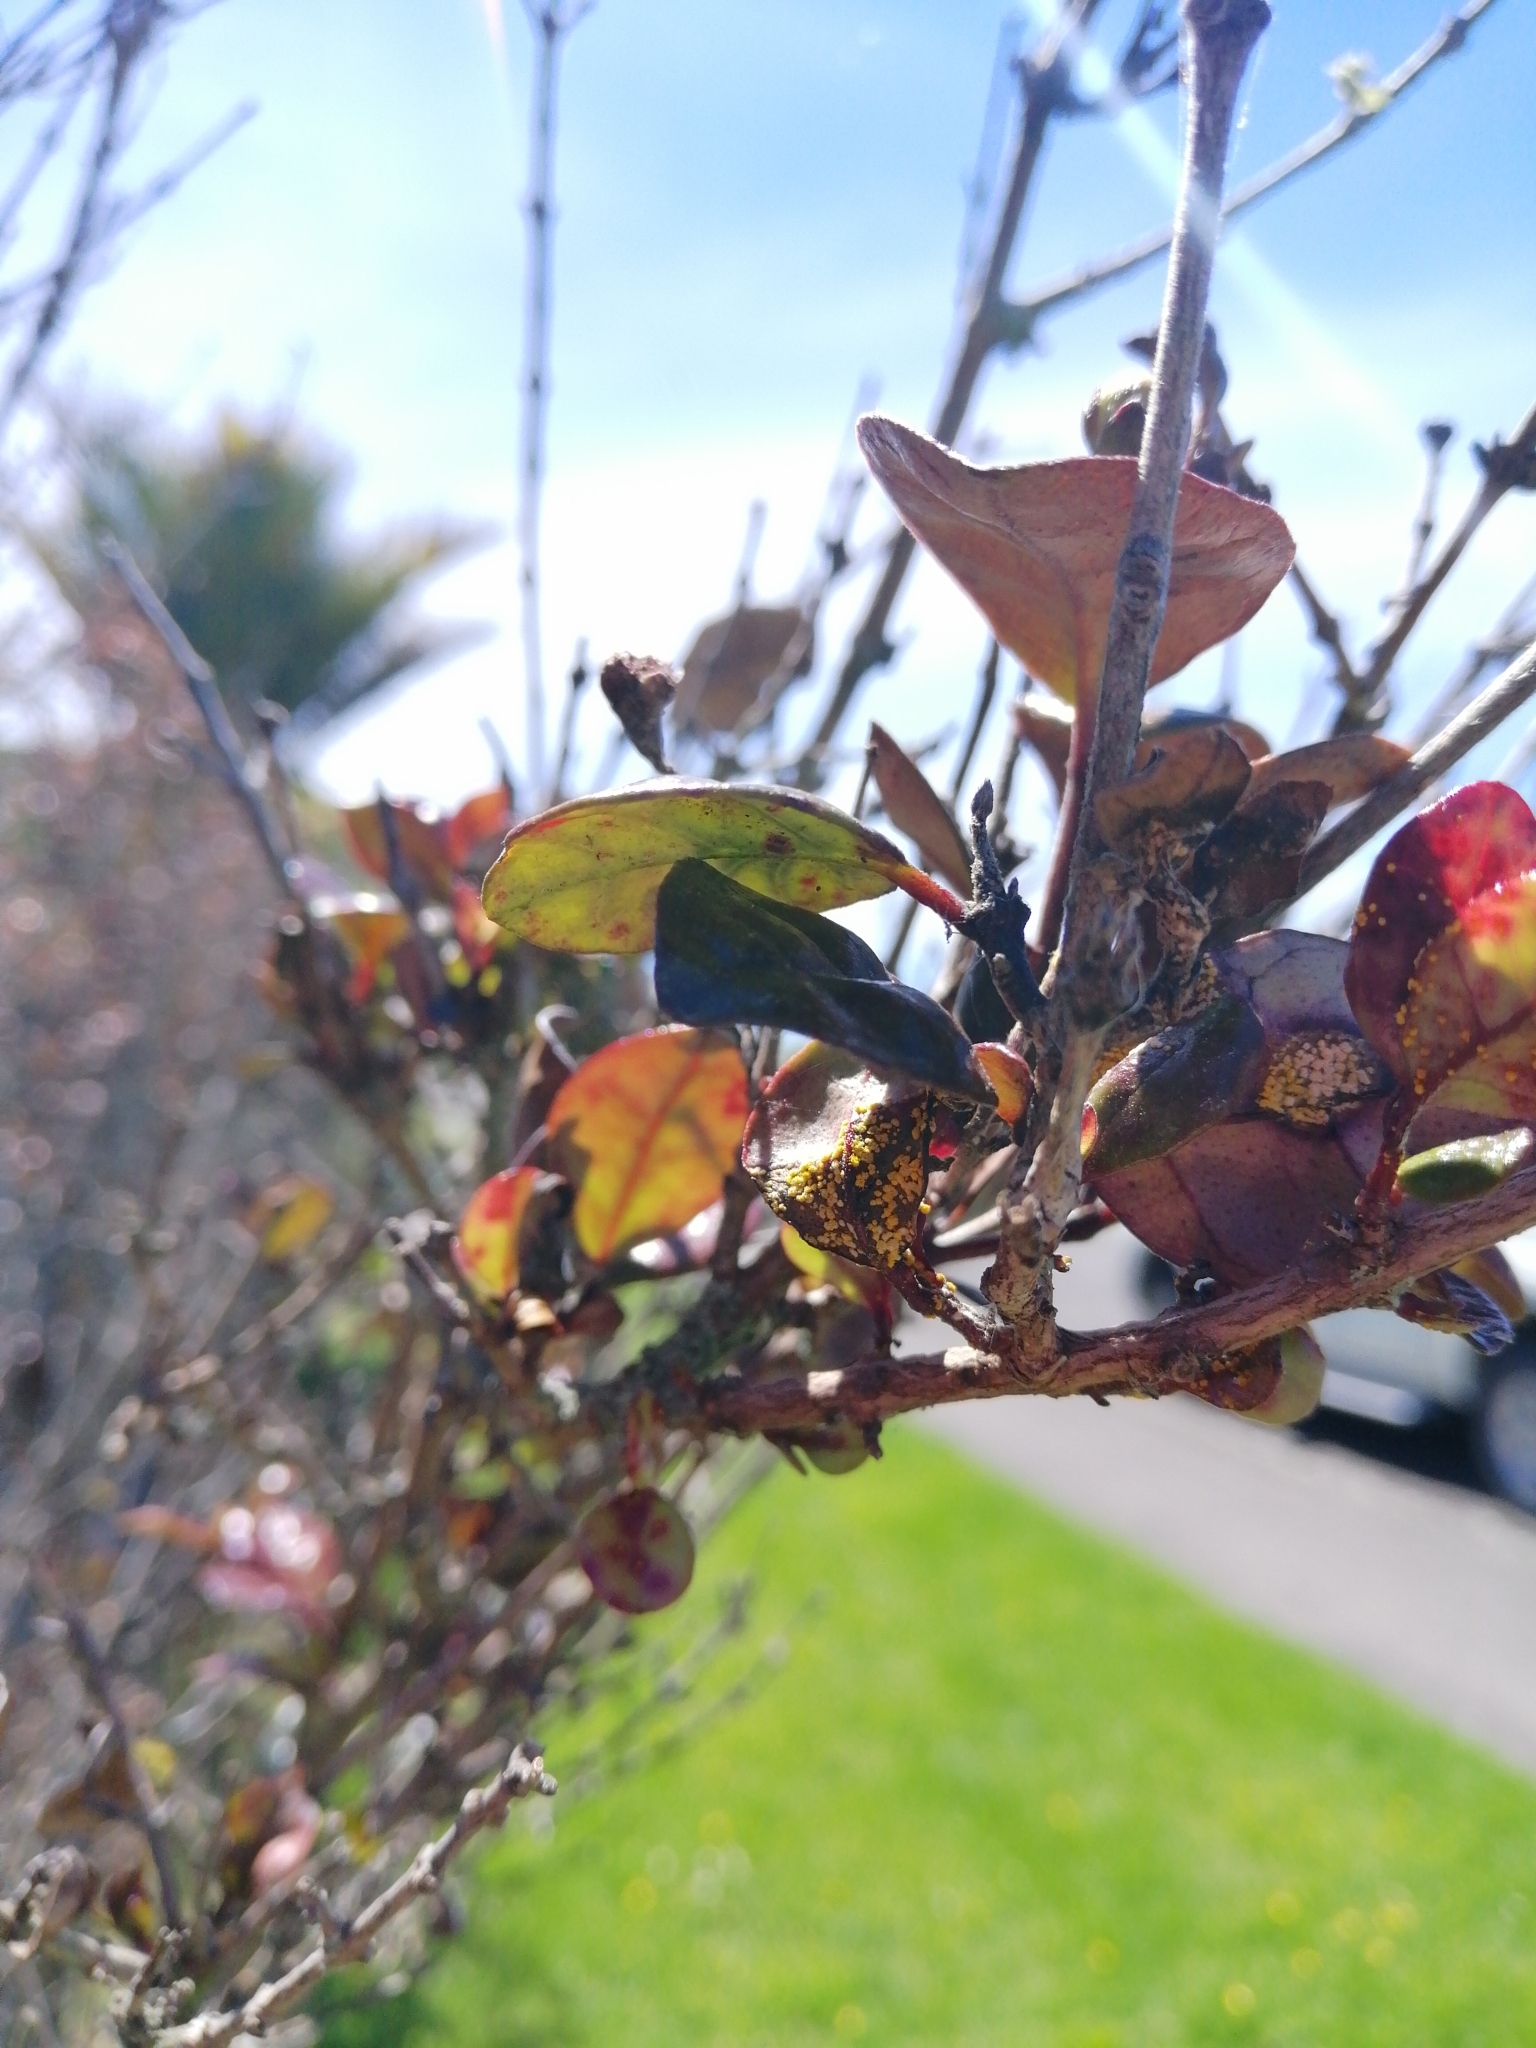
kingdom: Fungi
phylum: Basidiomycota
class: Pucciniomycetes
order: Pucciniales
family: Sphaerophragmiaceae
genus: Austropuccinia
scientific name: Austropuccinia psidii
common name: Myrtle rust
